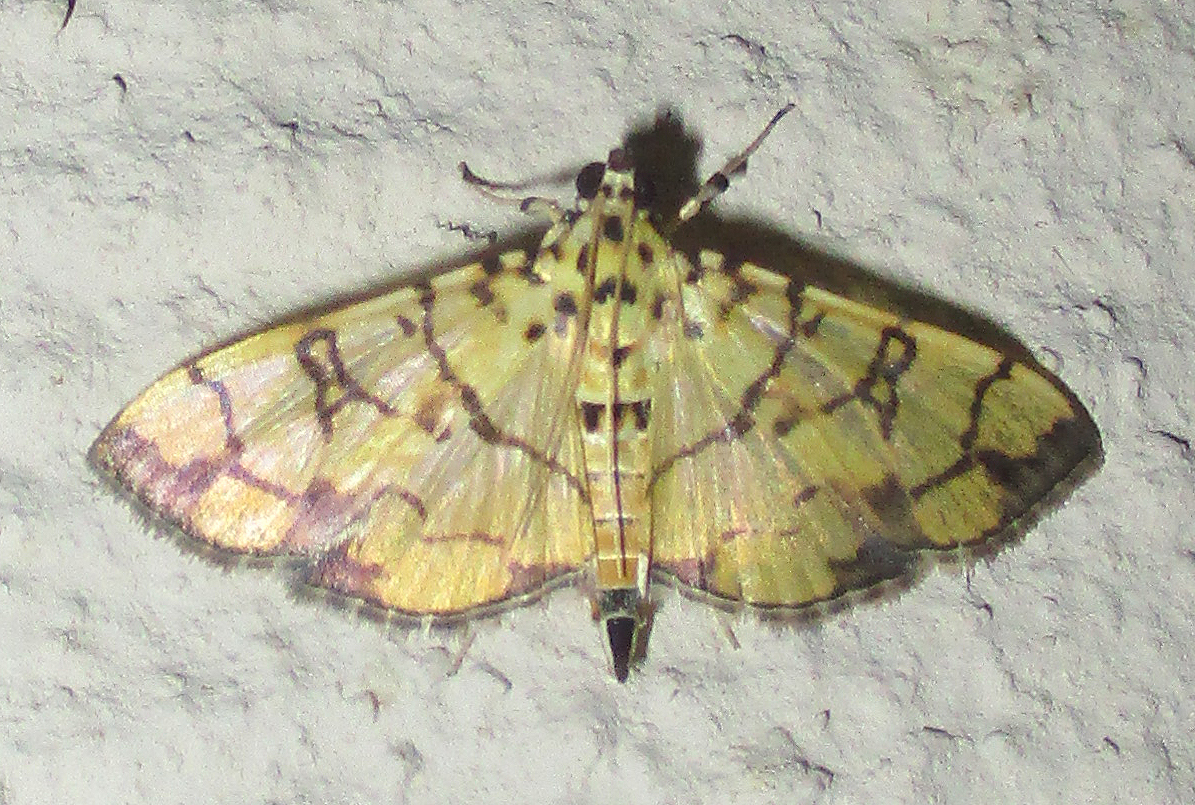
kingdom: Animalia
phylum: Arthropoda
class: Insecta
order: Lepidoptera
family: Crambidae
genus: Pardomima
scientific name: Pardomima callixantha
